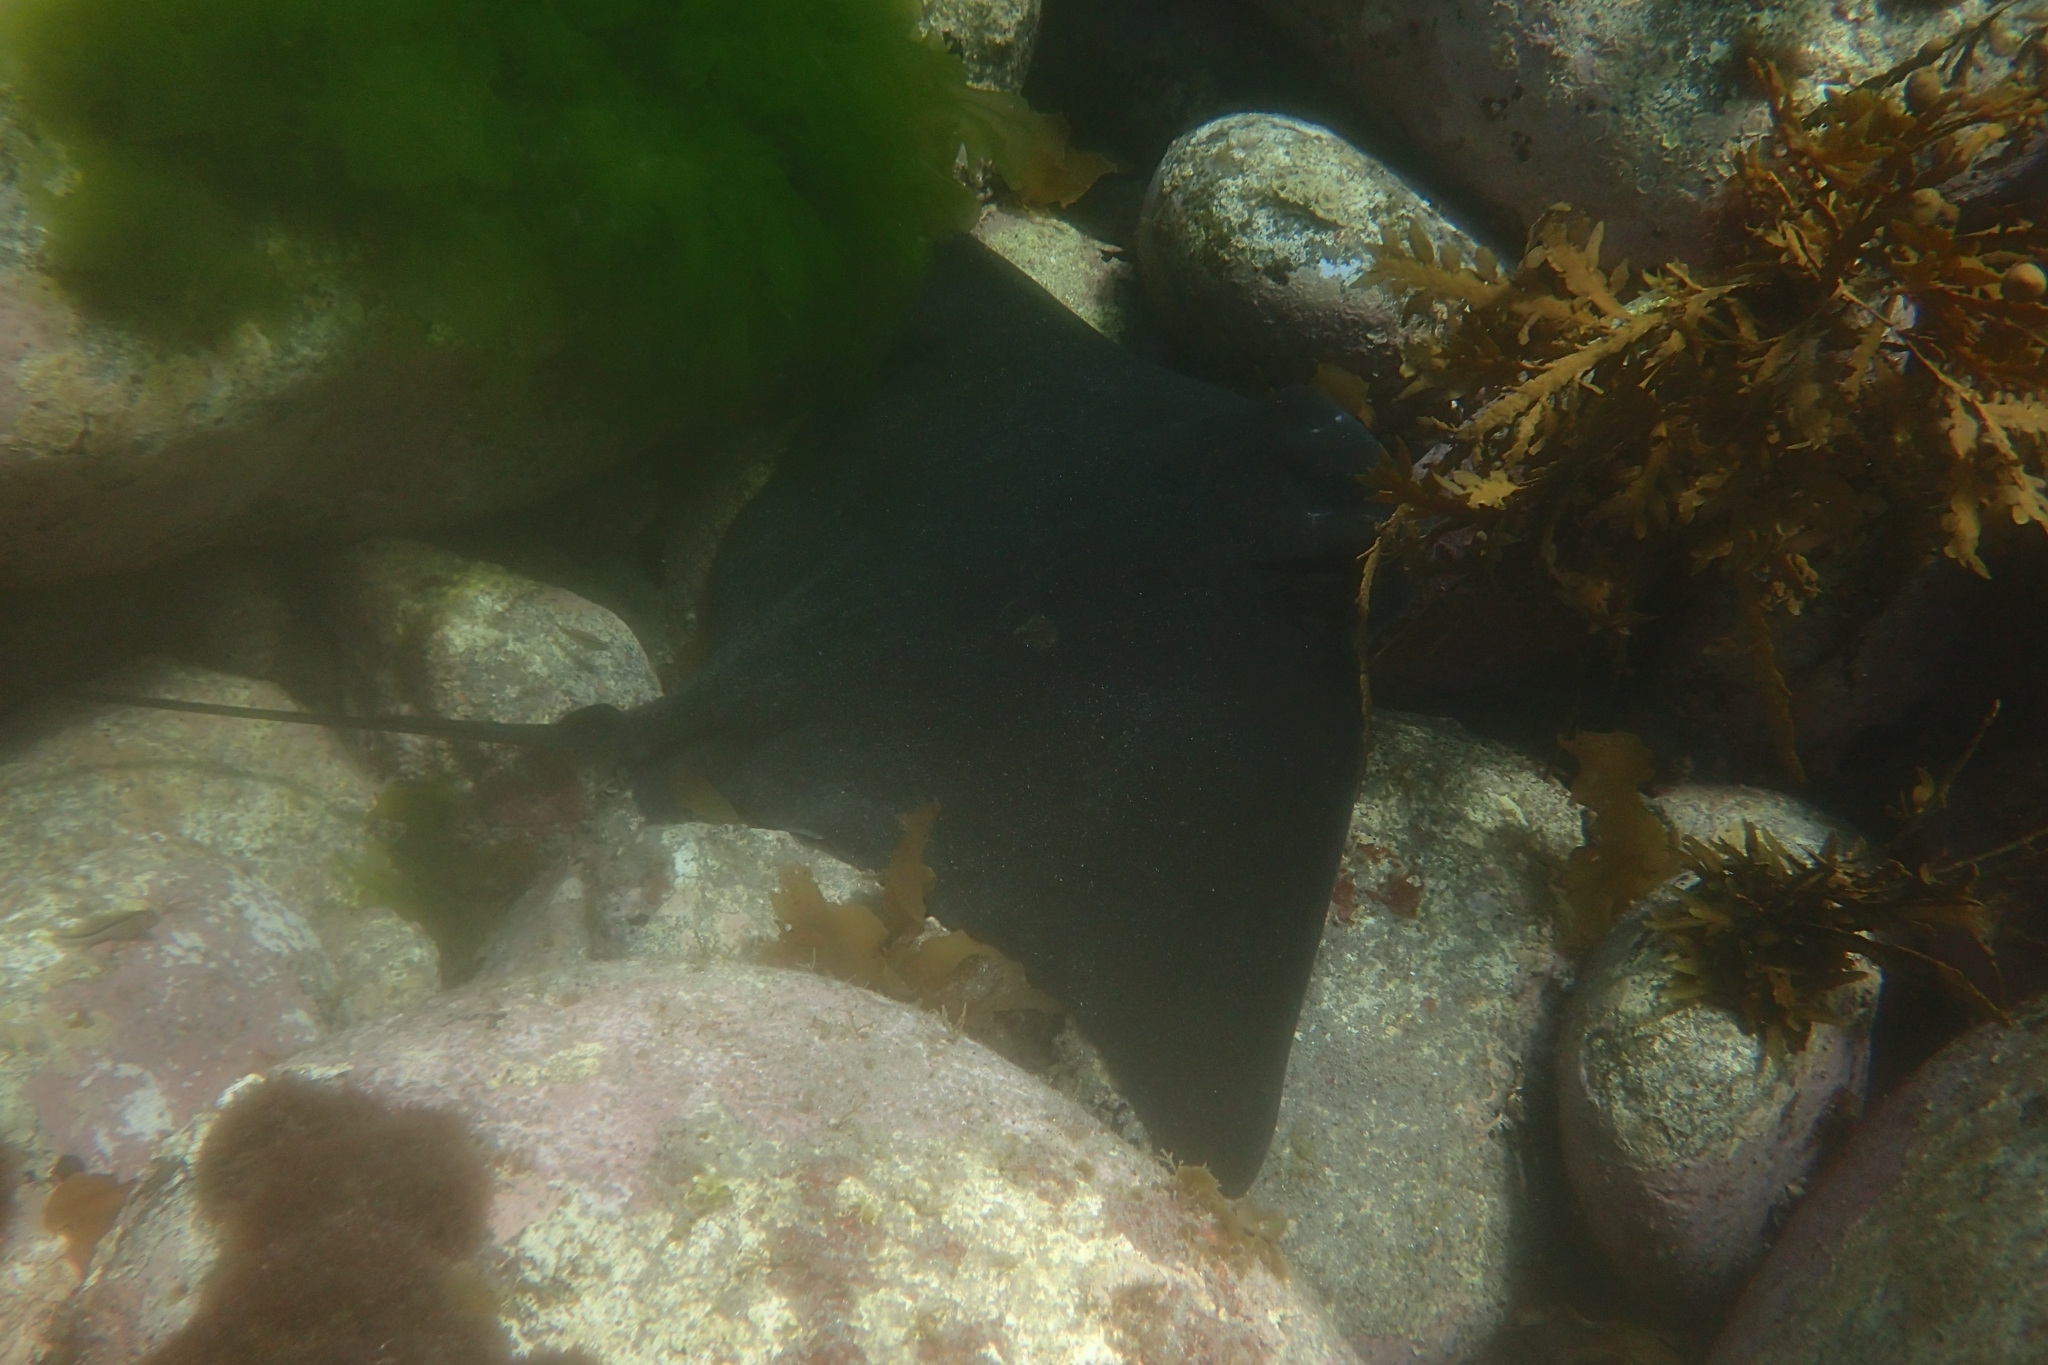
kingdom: Animalia
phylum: Chordata
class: Elasmobranchii
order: Myliobatiformes
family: Myliobatidae
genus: Myliobatis
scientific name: Myliobatis tenuicaudatus
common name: Eagle ray
